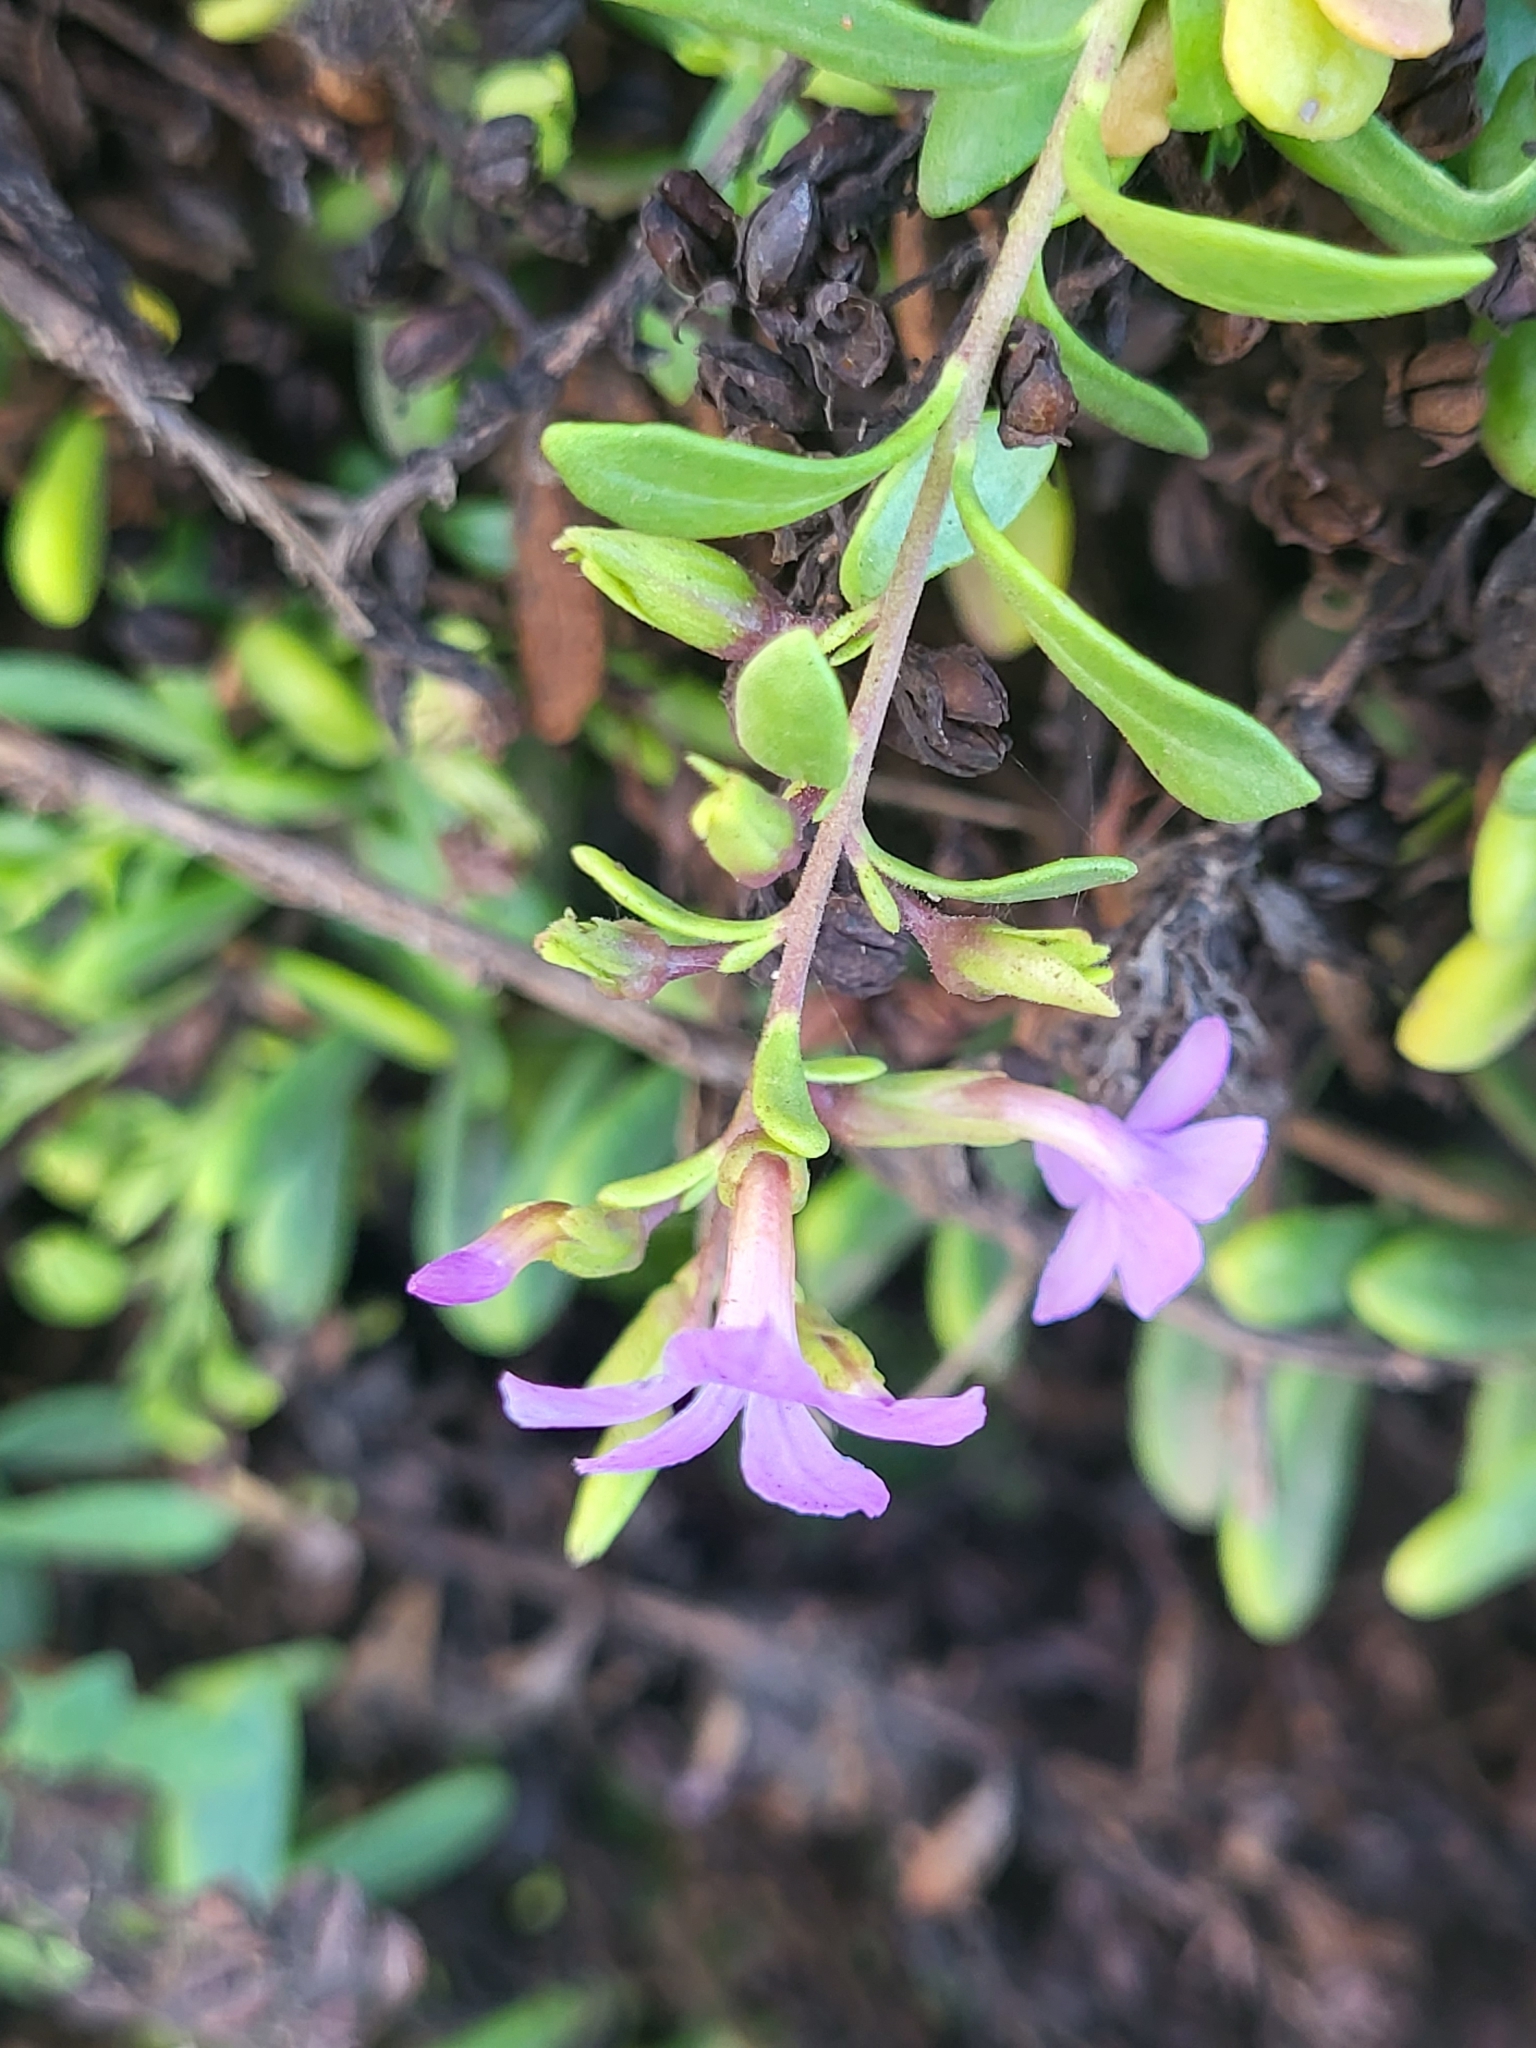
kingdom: Plantae
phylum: Tracheophyta
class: Magnoliopsida
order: Lamiales
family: Plantaginaceae
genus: Campylanthus
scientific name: Campylanthus glaber
